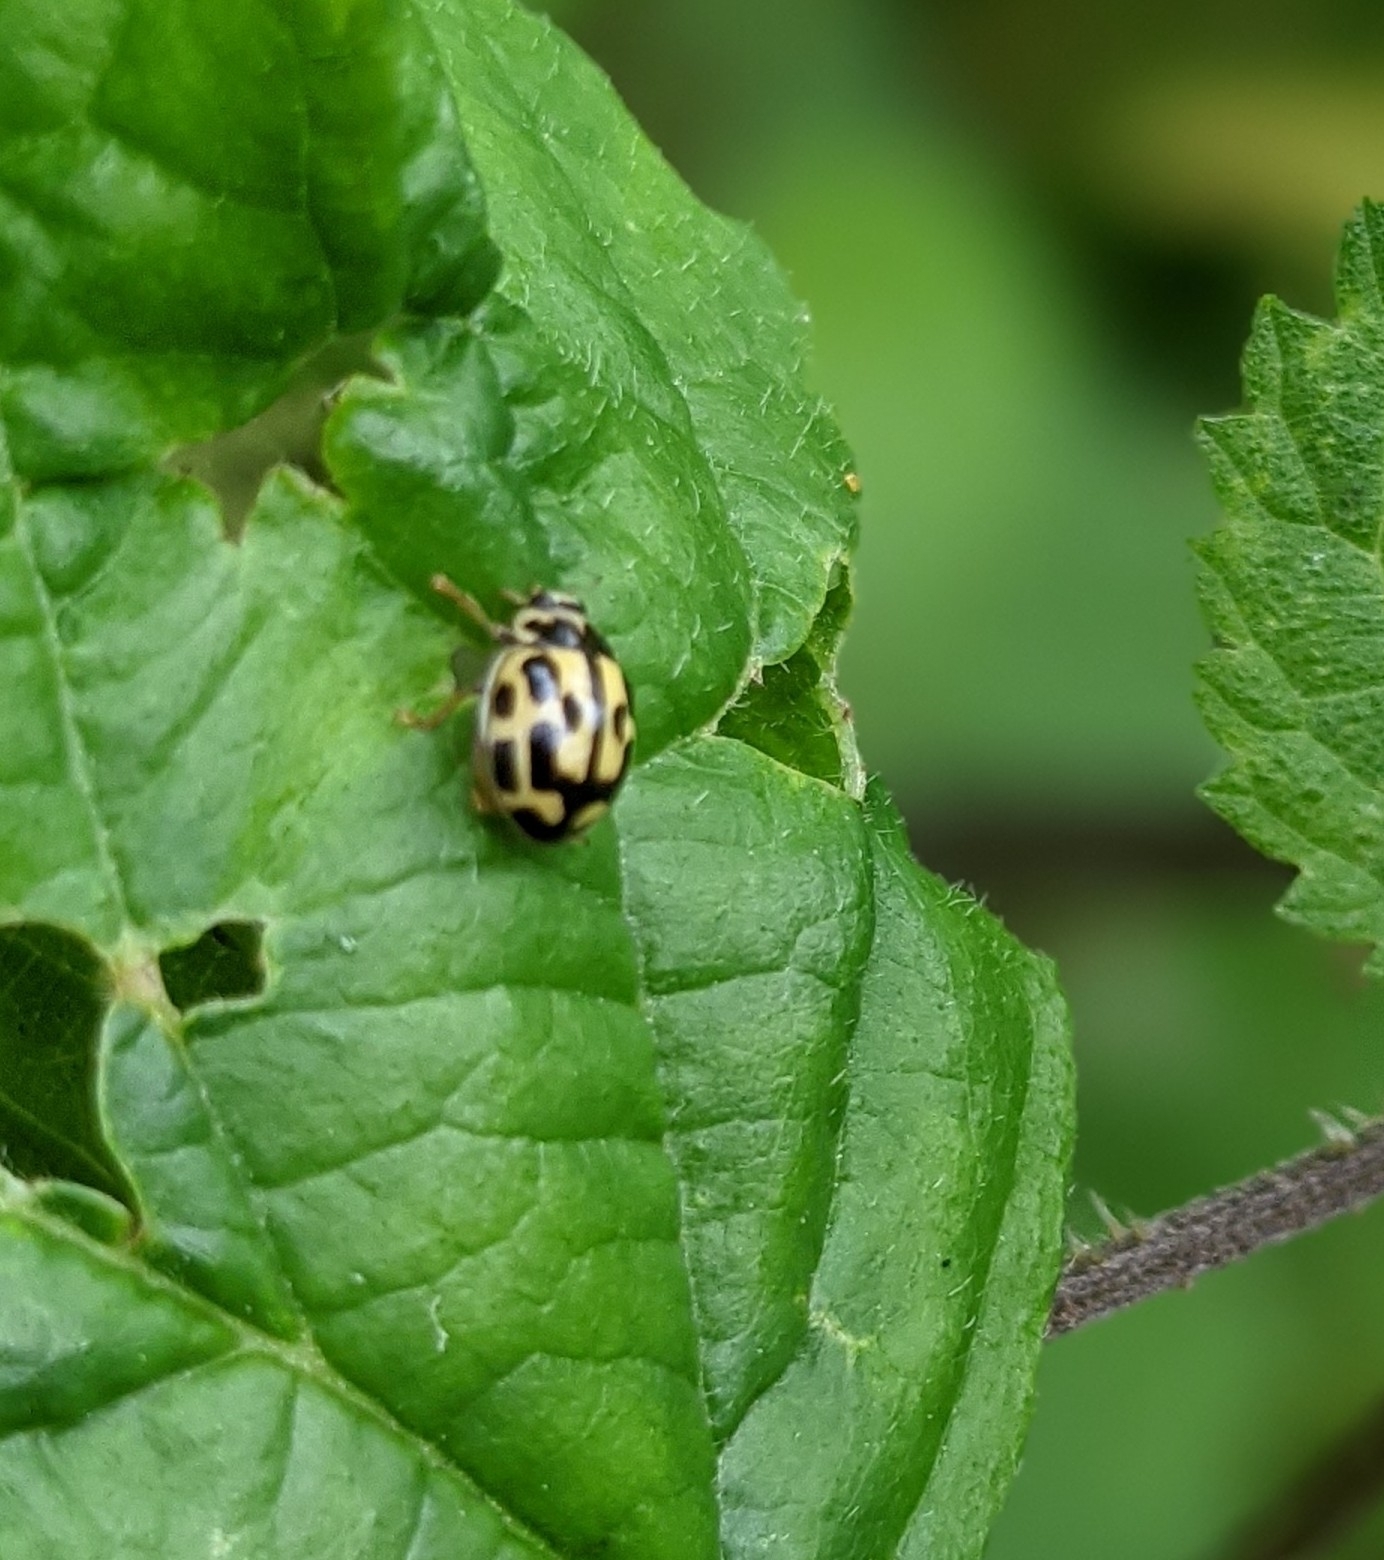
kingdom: Animalia
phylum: Arthropoda
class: Insecta
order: Coleoptera
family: Coccinellidae
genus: Propylaea
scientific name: Propylaea quatuordecimpunctata
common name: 14-spotted ladybird beetle
